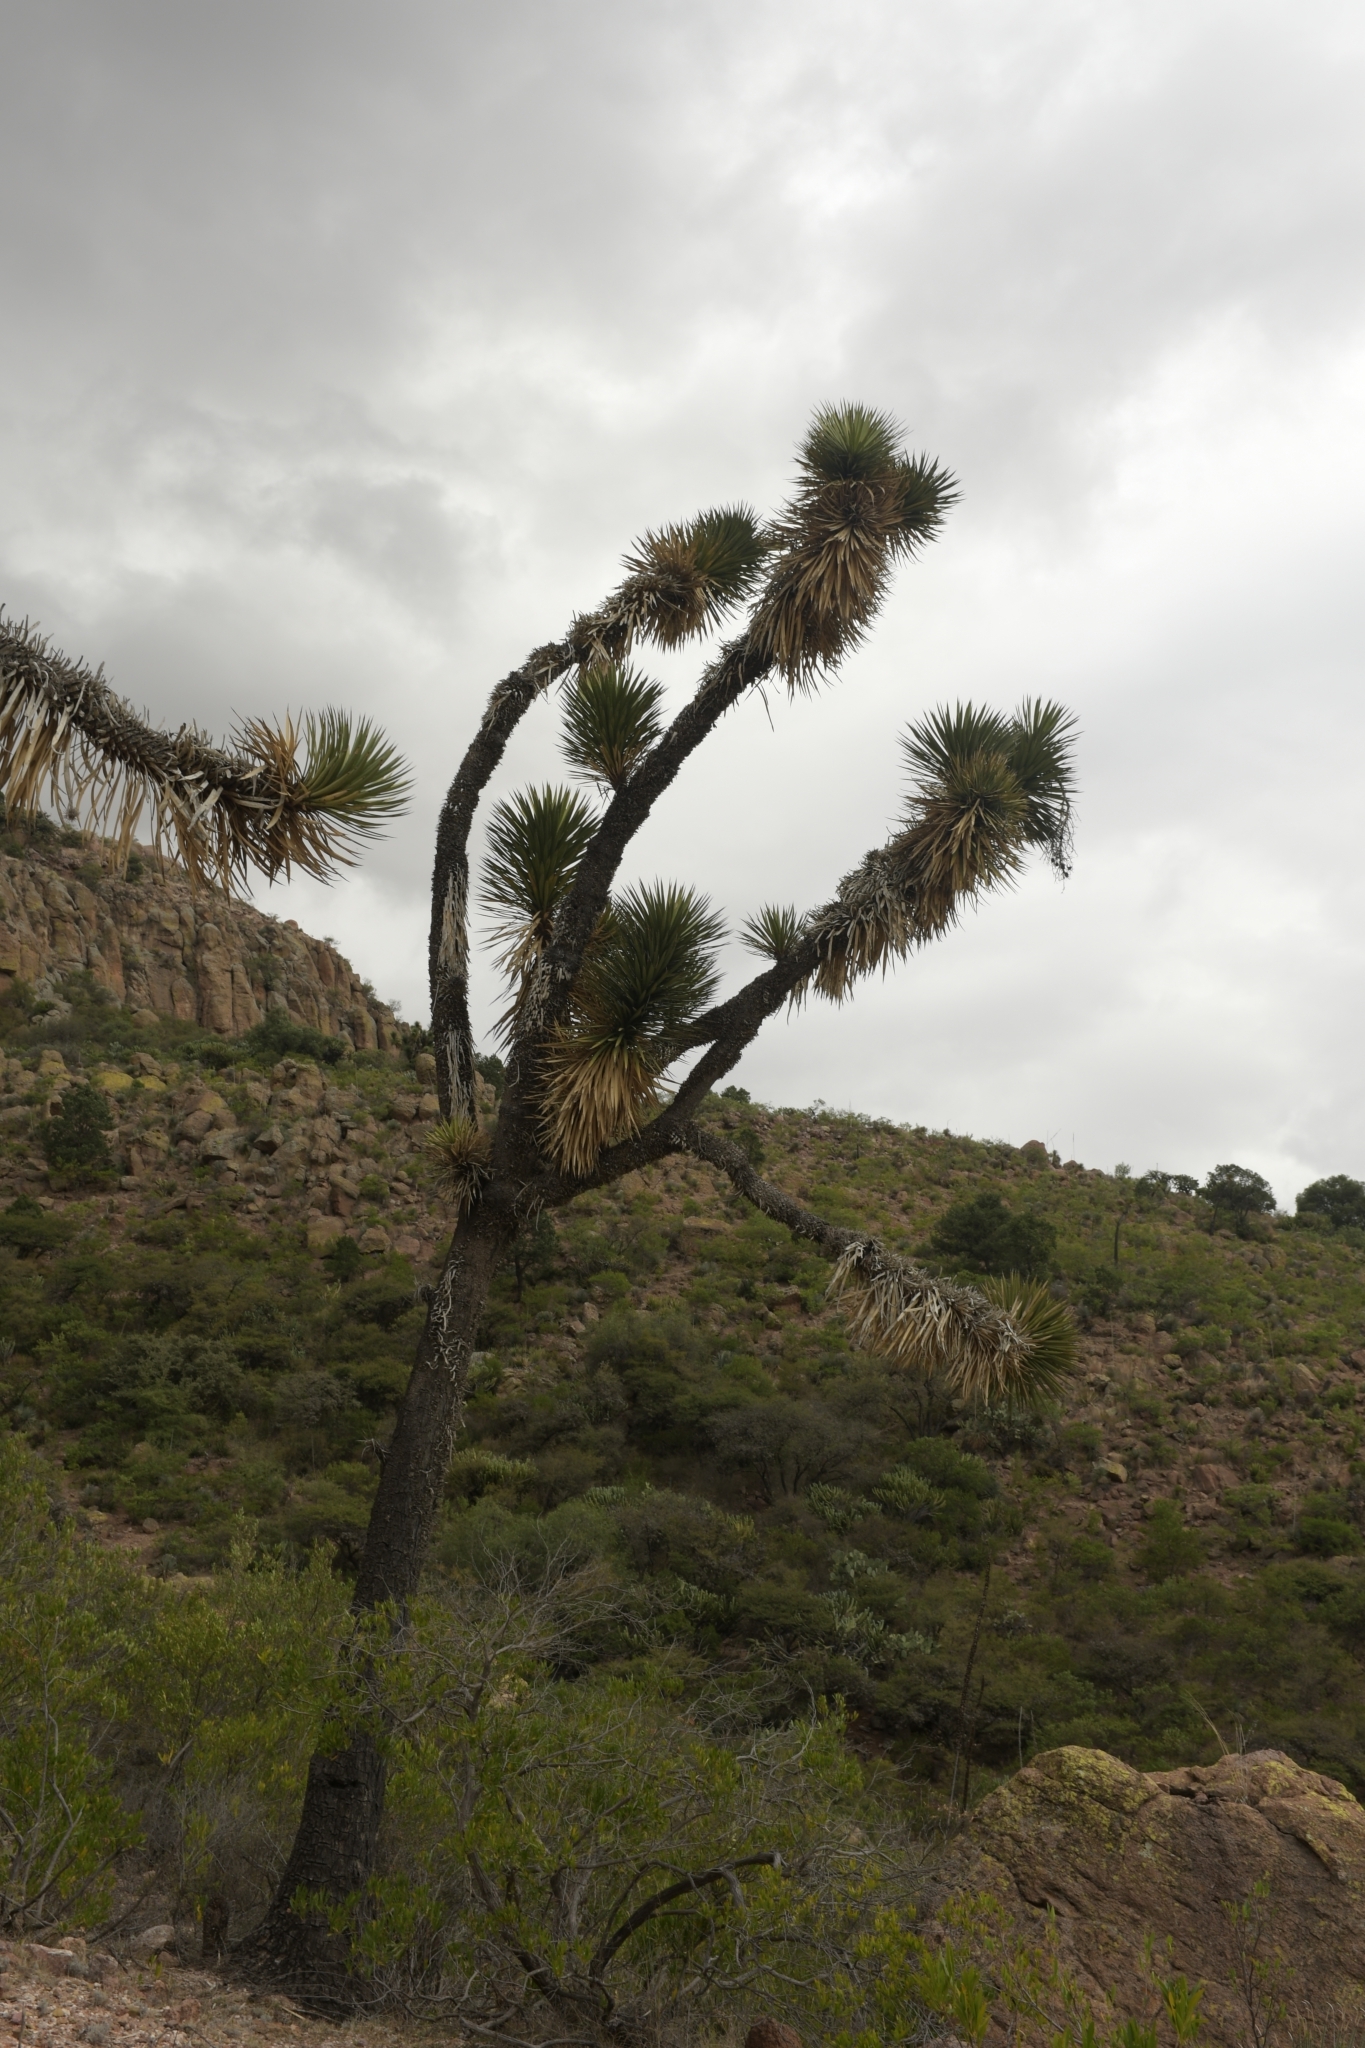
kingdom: Plantae
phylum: Tracheophyta
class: Liliopsida
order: Asparagales
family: Asparagaceae
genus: Yucca
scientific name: Yucca filifera
